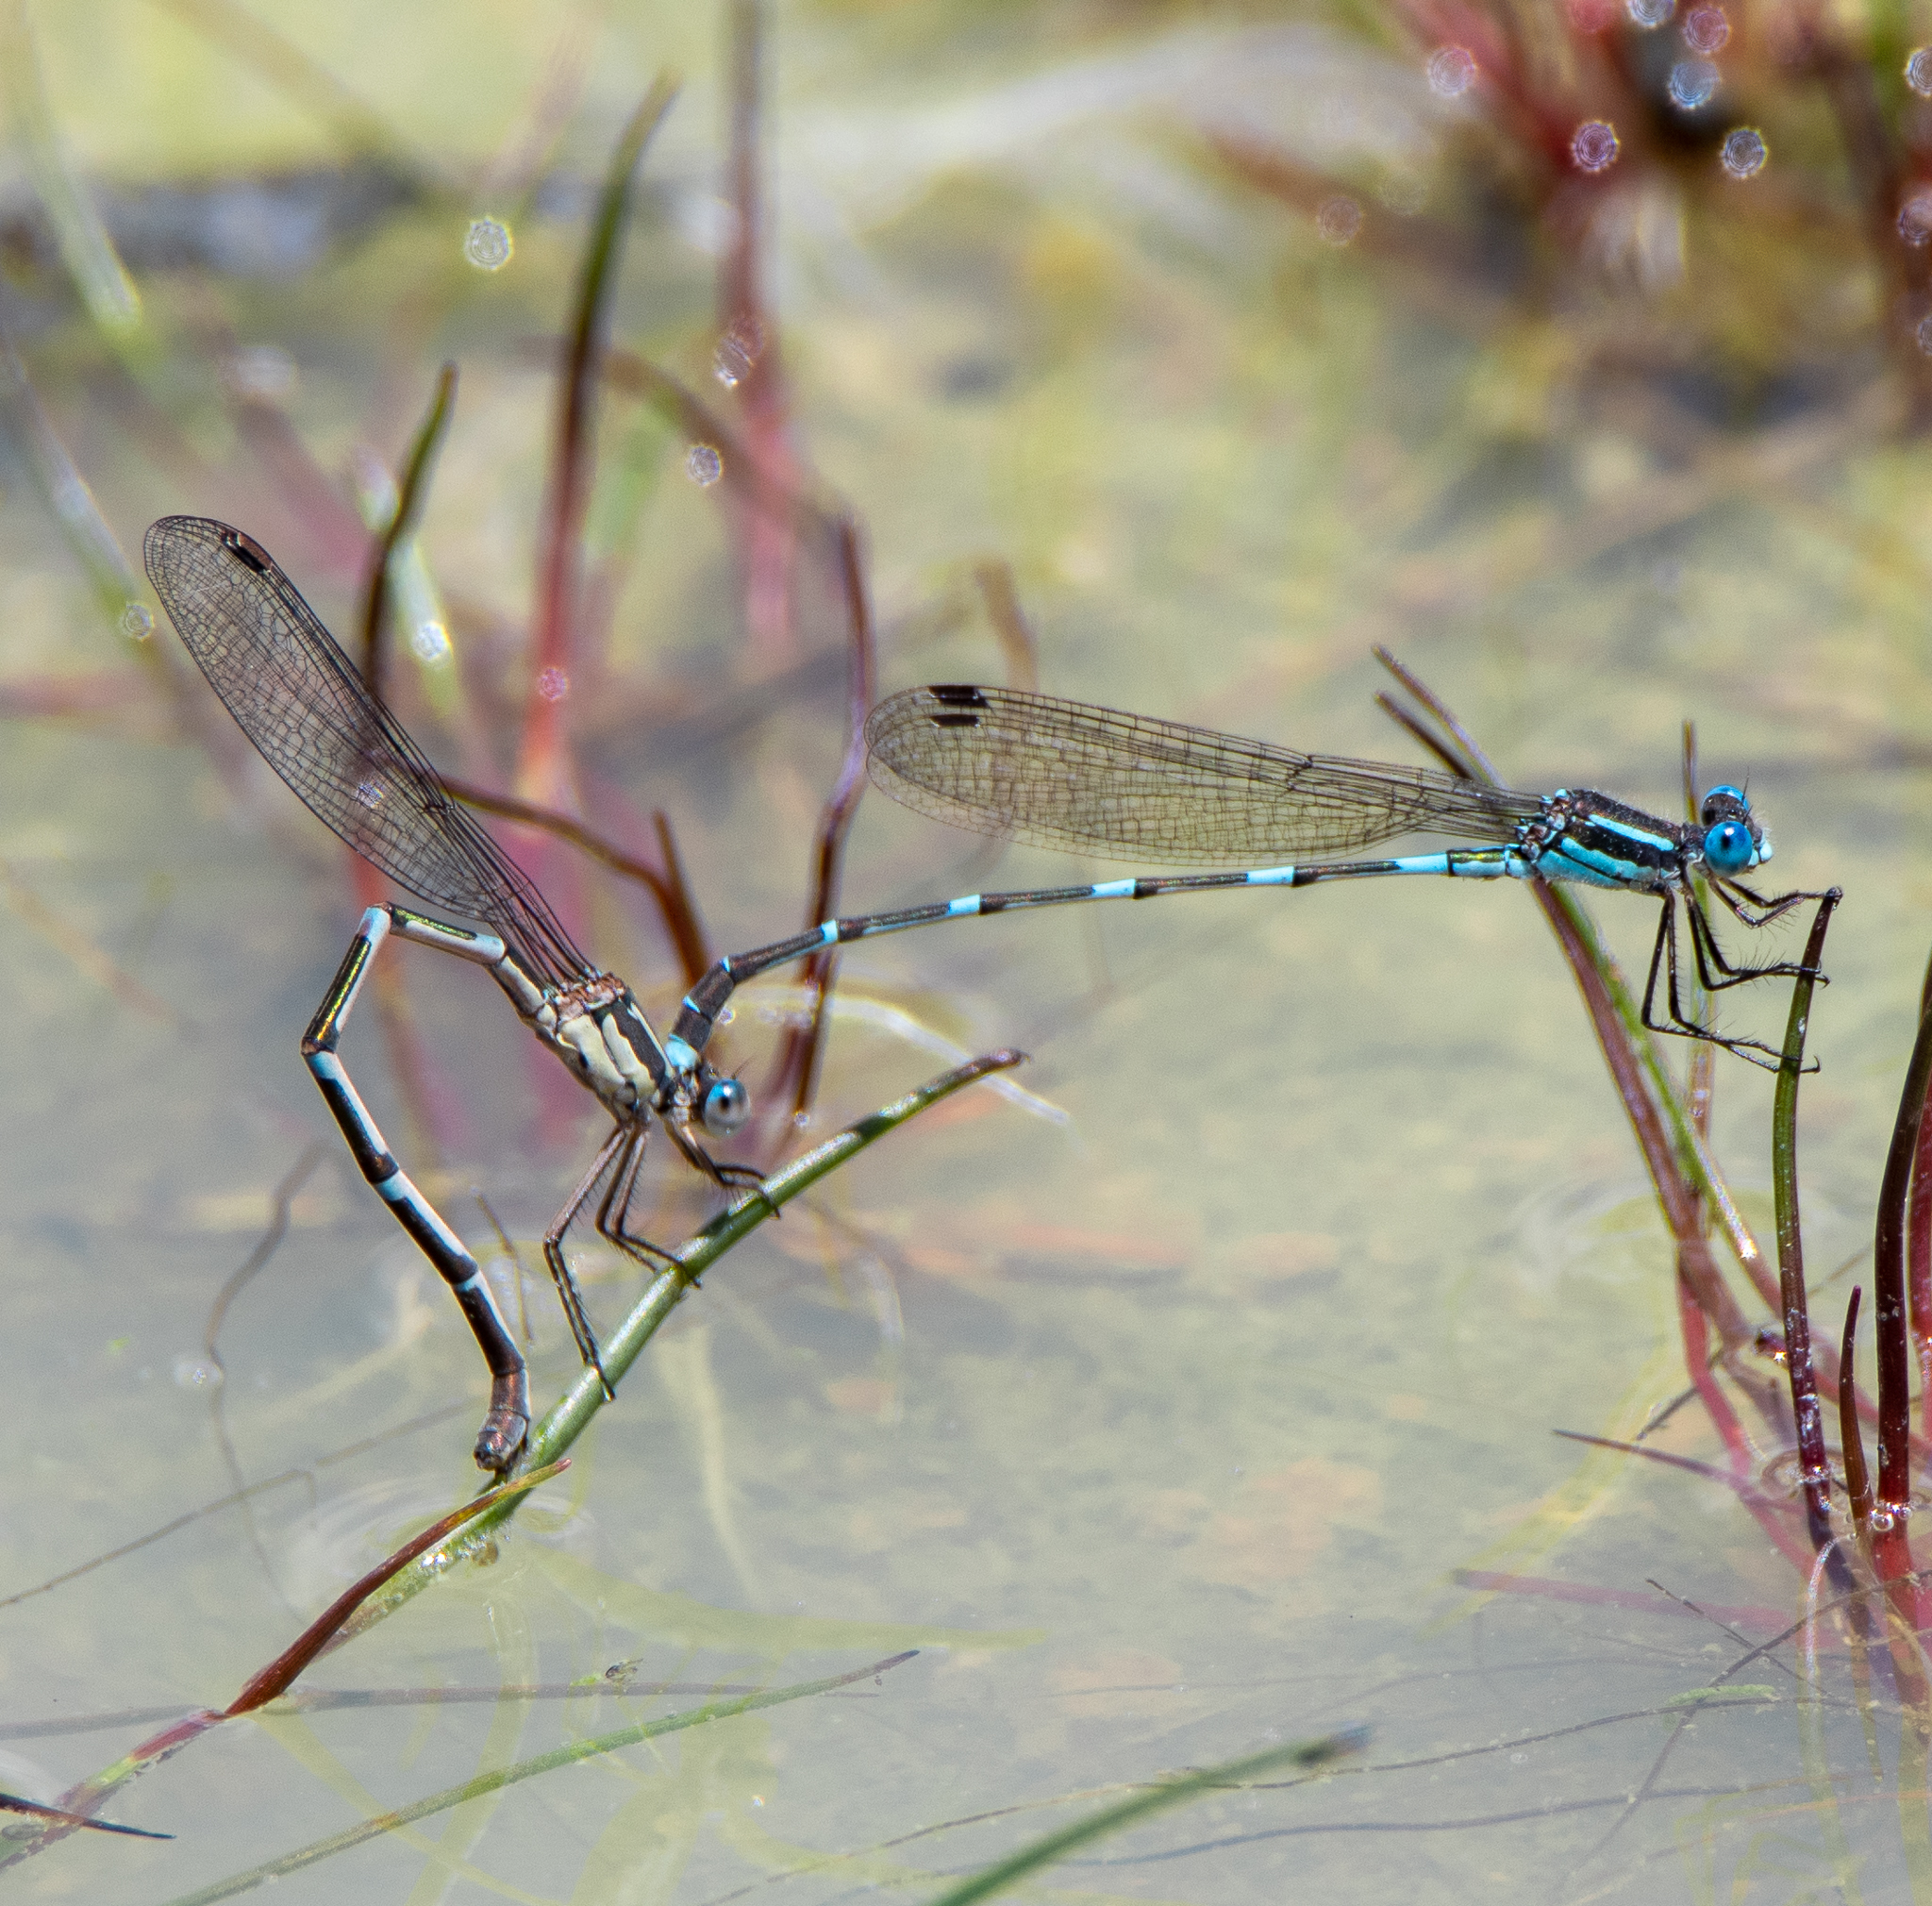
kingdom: Animalia
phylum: Arthropoda
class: Insecta
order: Odonata
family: Lestidae
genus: Austrolestes
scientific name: Austrolestes leda
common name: Wandering ringtail
